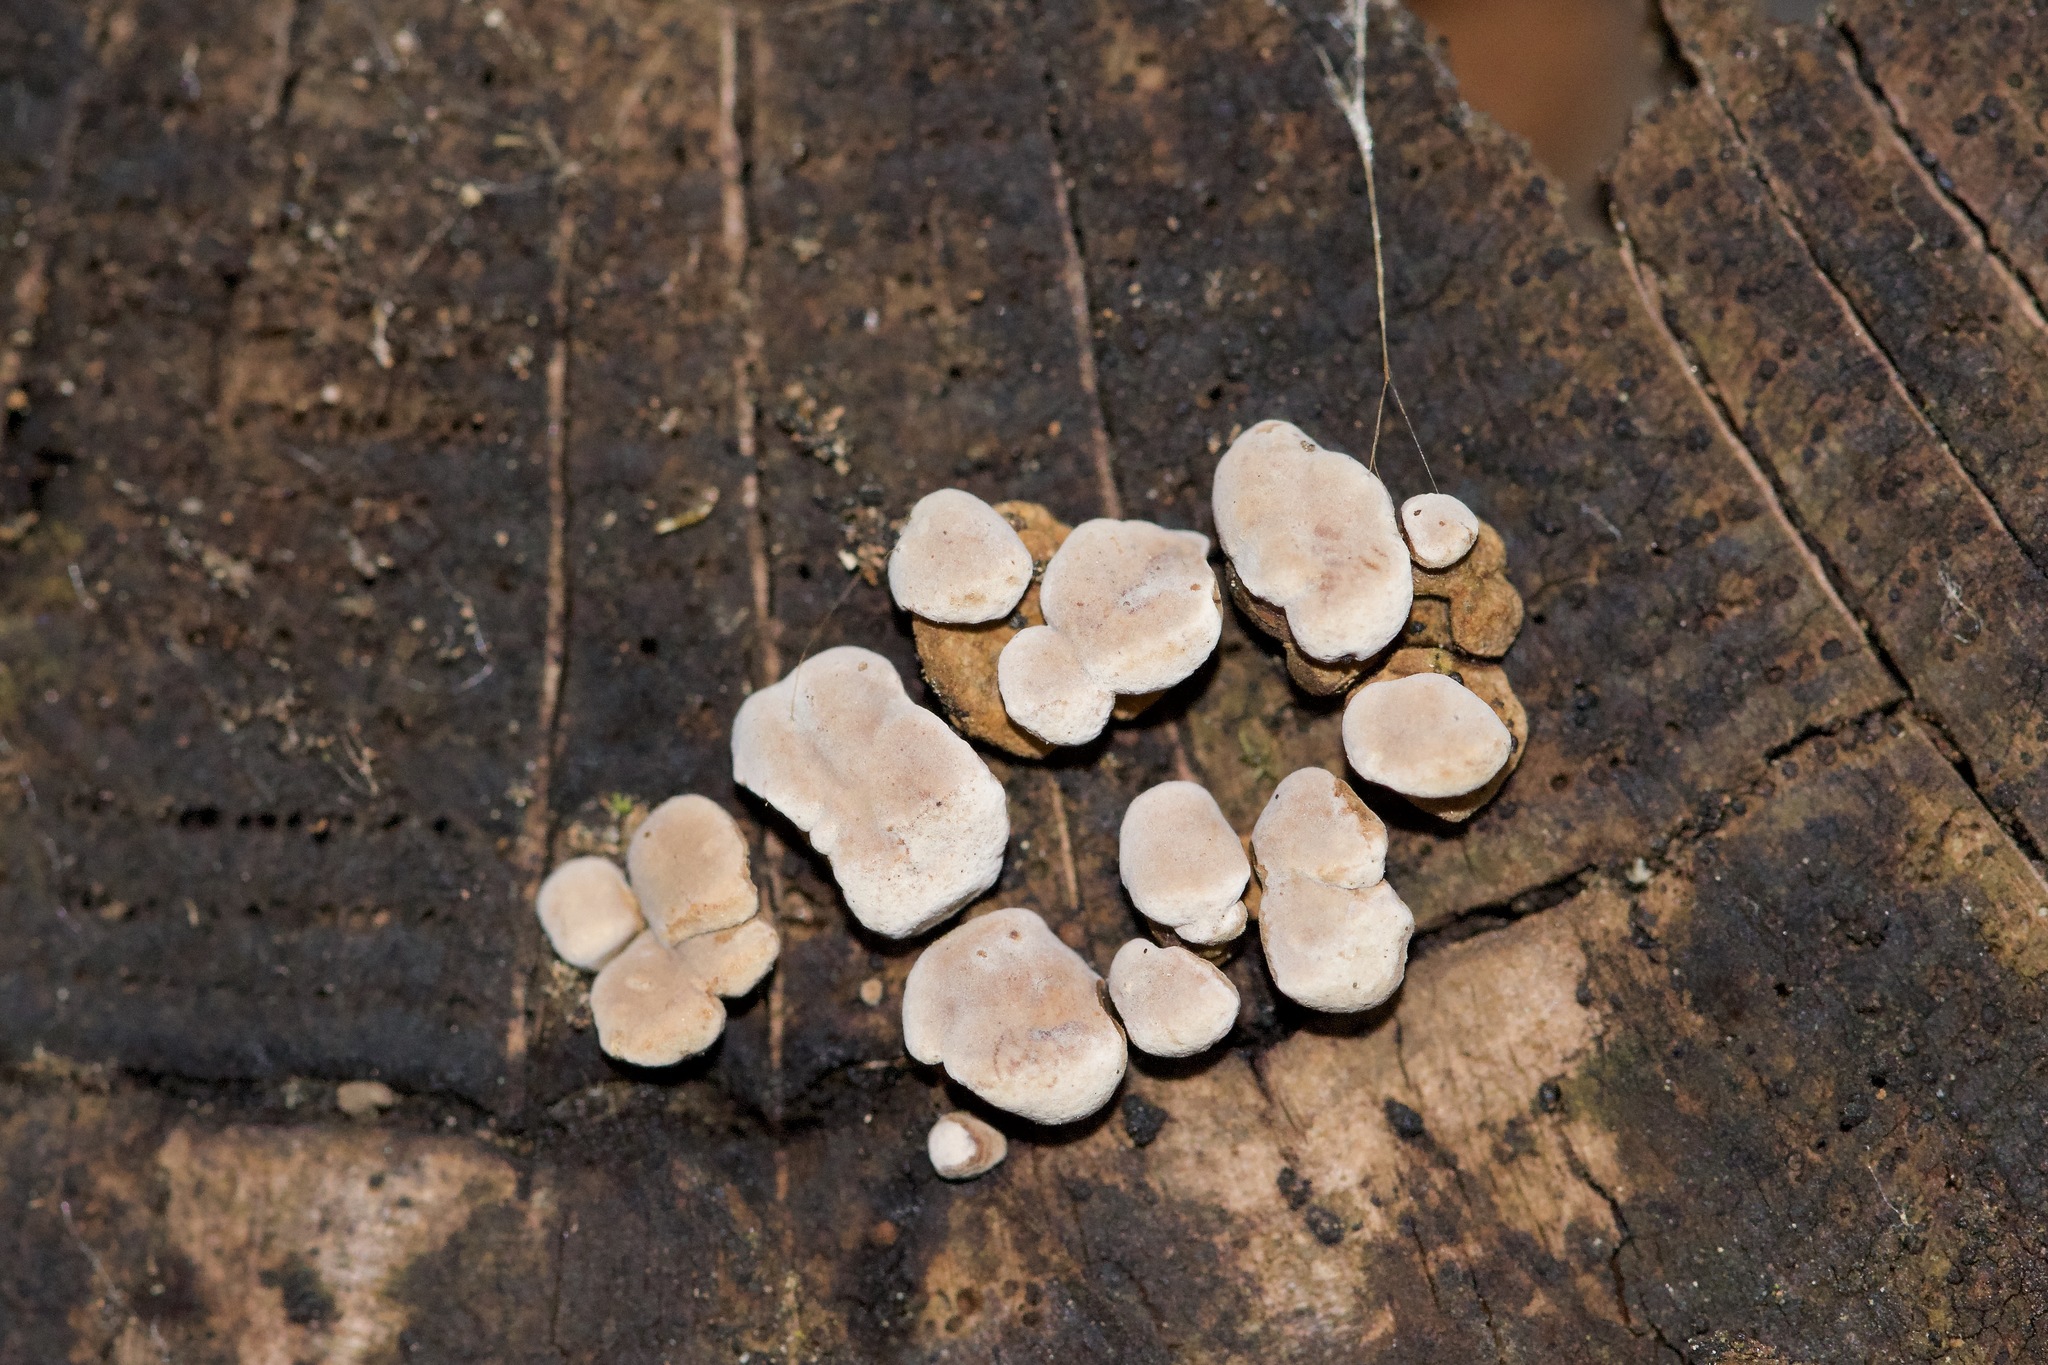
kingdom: Fungi
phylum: Basidiomycota
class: Agaricomycetes
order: Russulales
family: Stereaceae
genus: Xylobolus
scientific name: Xylobolus frustulatus
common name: Ceramic parchment
